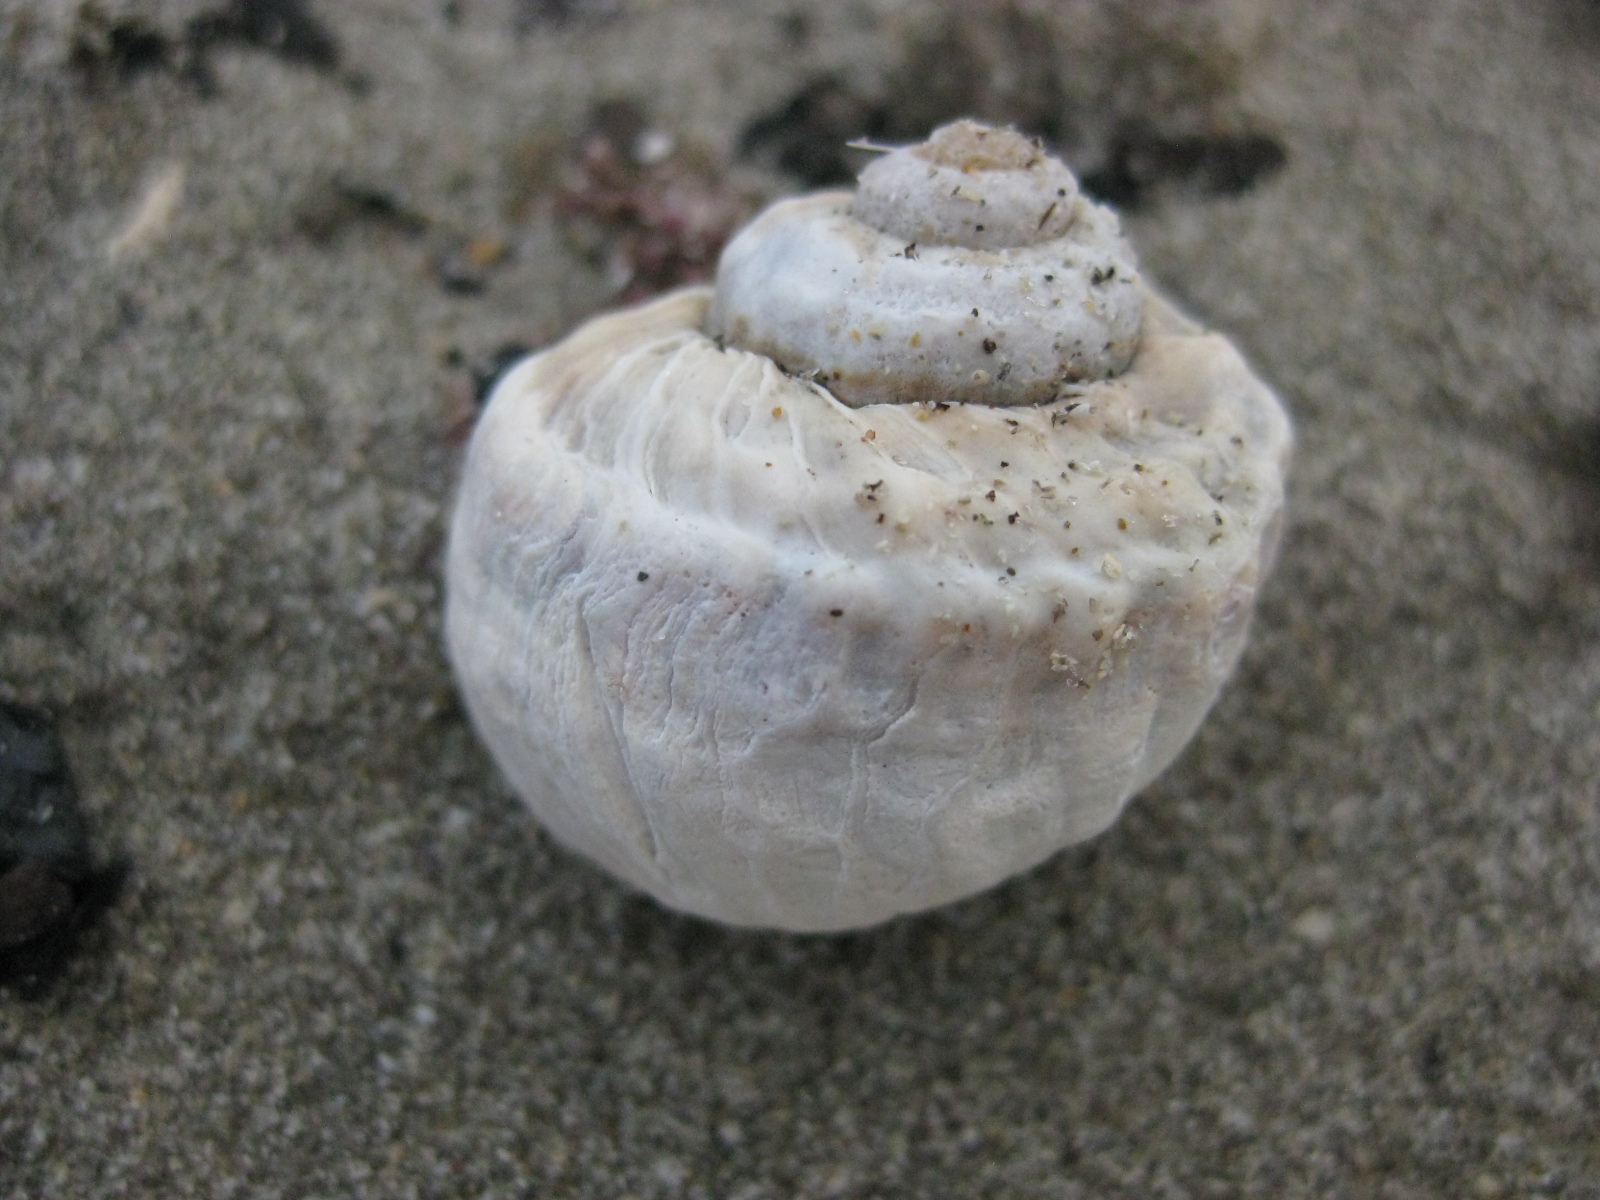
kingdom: Animalia
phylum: Mollusca
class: Gastropoda
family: Amphibolidae
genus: Amphibola
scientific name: Amphibola crenata
